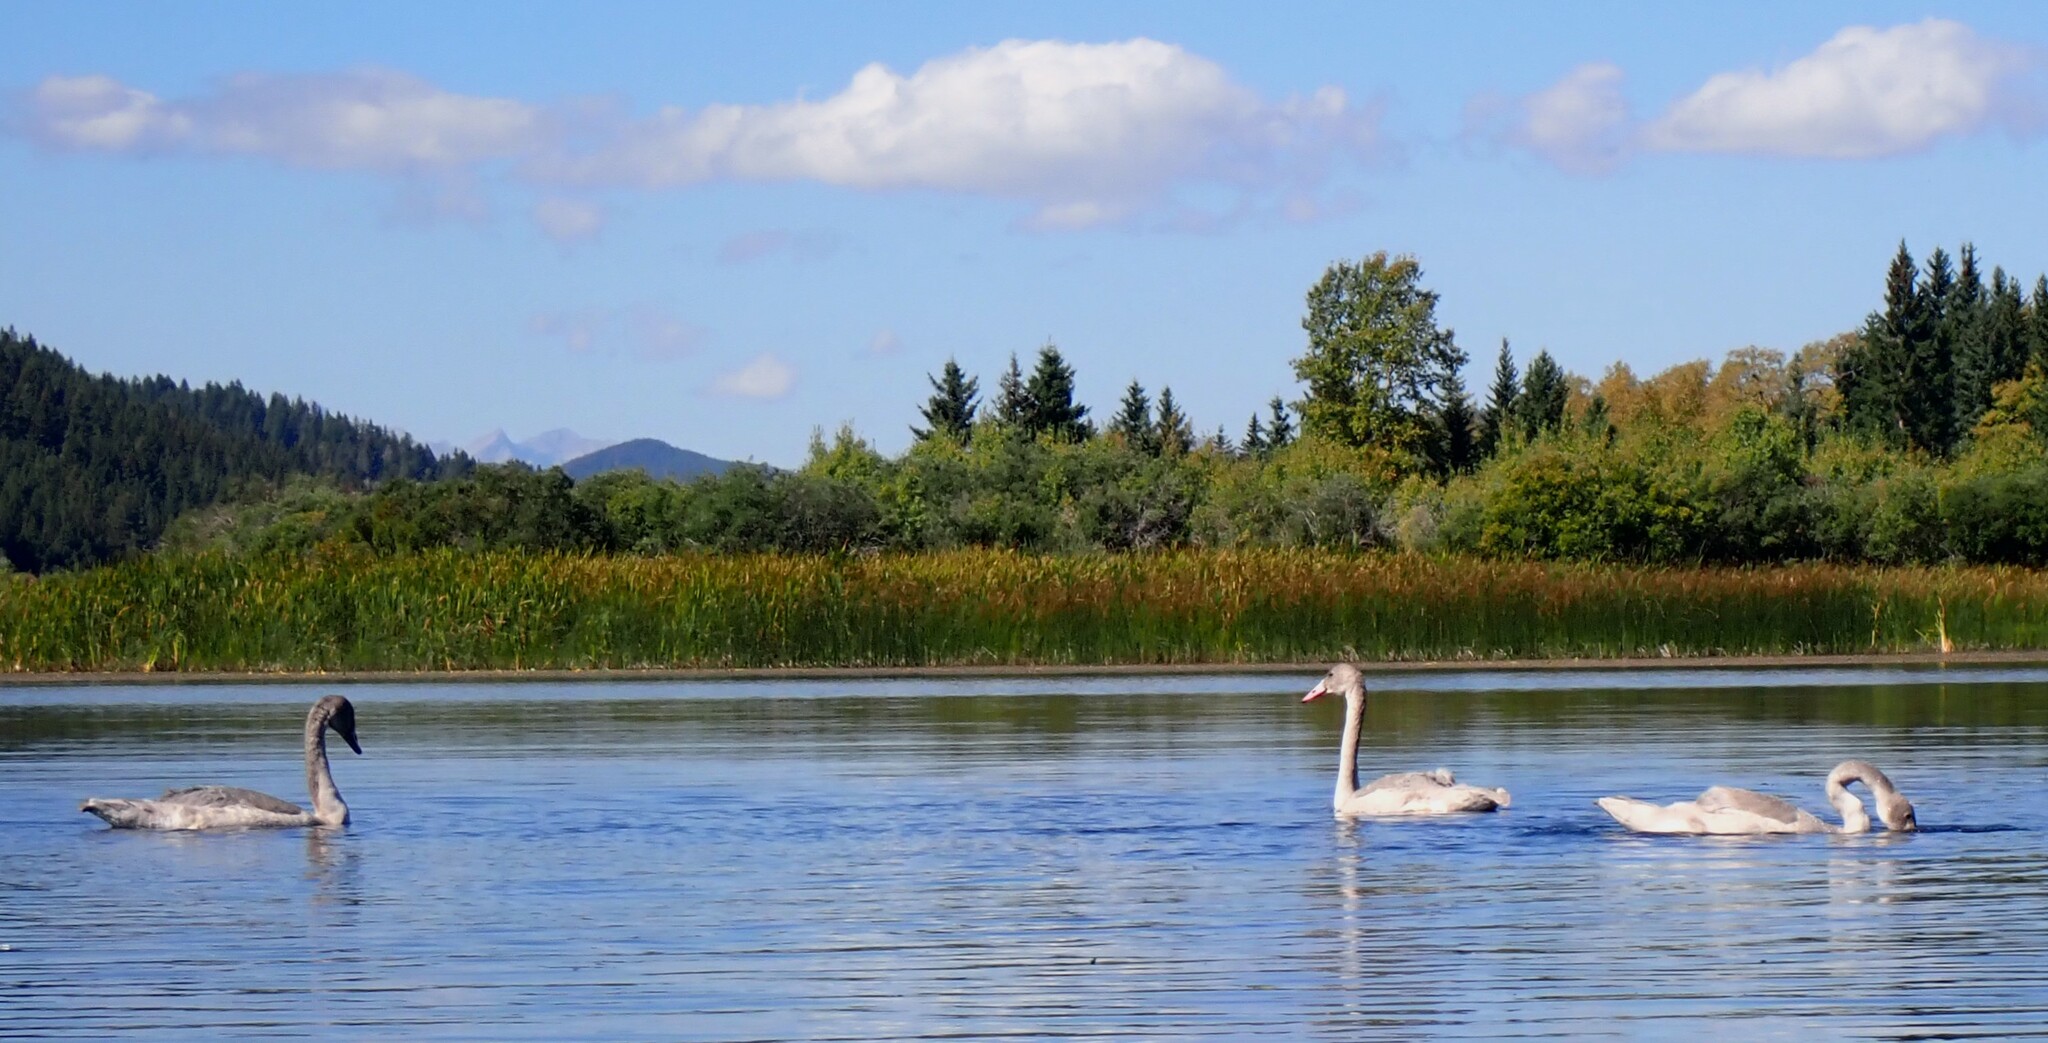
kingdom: Animalia
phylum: Chordata
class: Aves
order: Anseriformes
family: Anatidae
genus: Cygnus
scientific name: Cygnus buccinator
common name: Trumpeter swan
